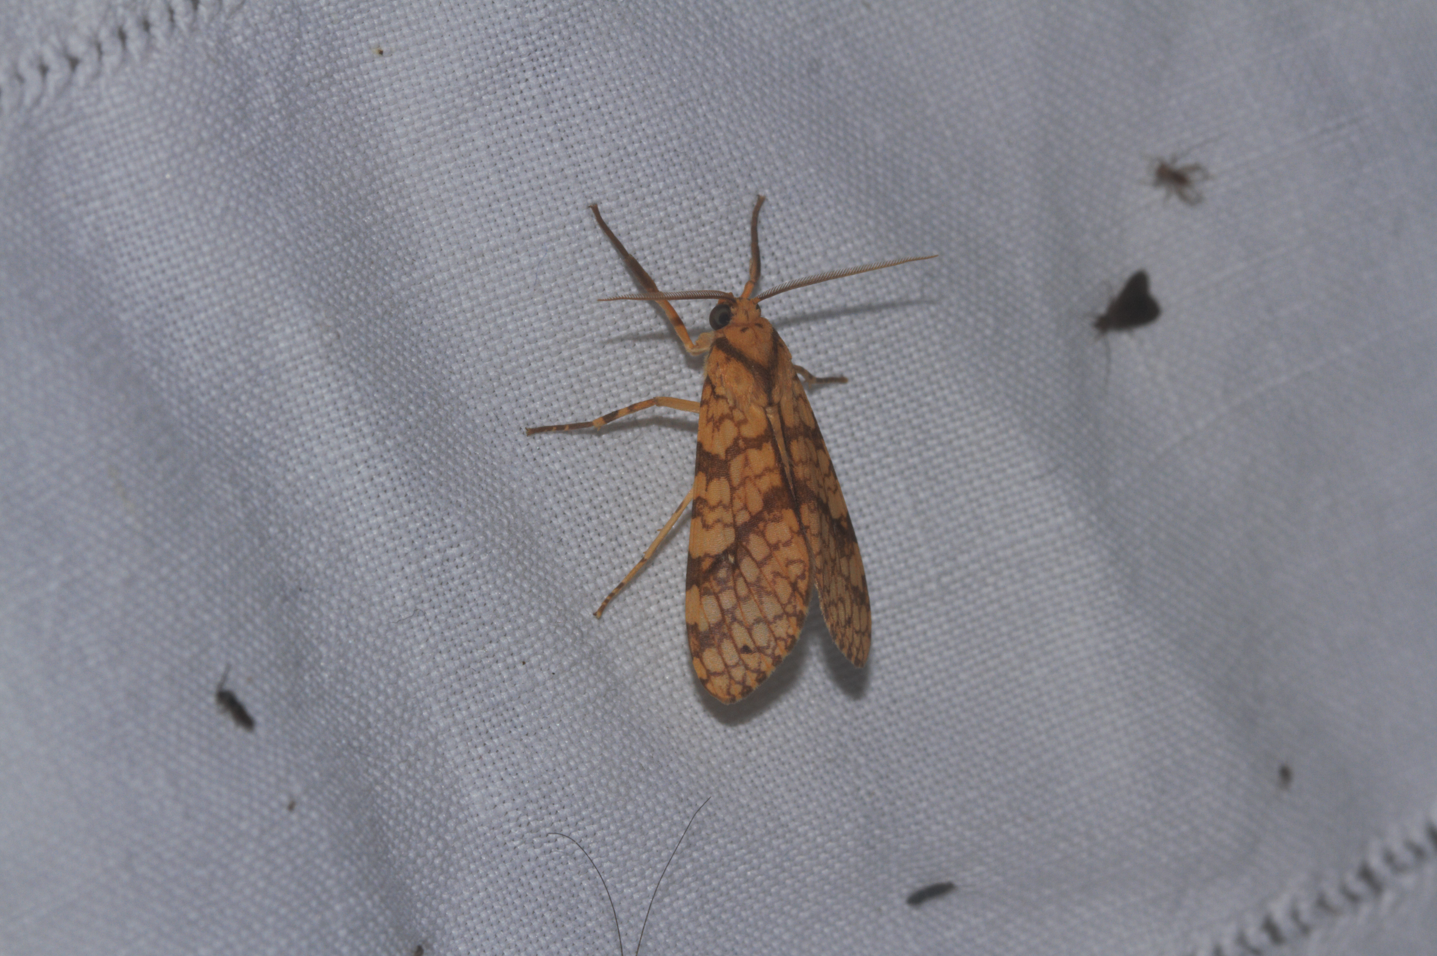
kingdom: Animalia
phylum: Arthropoda
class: Insecta
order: Lepidoptera
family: Erebidae
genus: Lophocampa
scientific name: Lophocampa seruba
